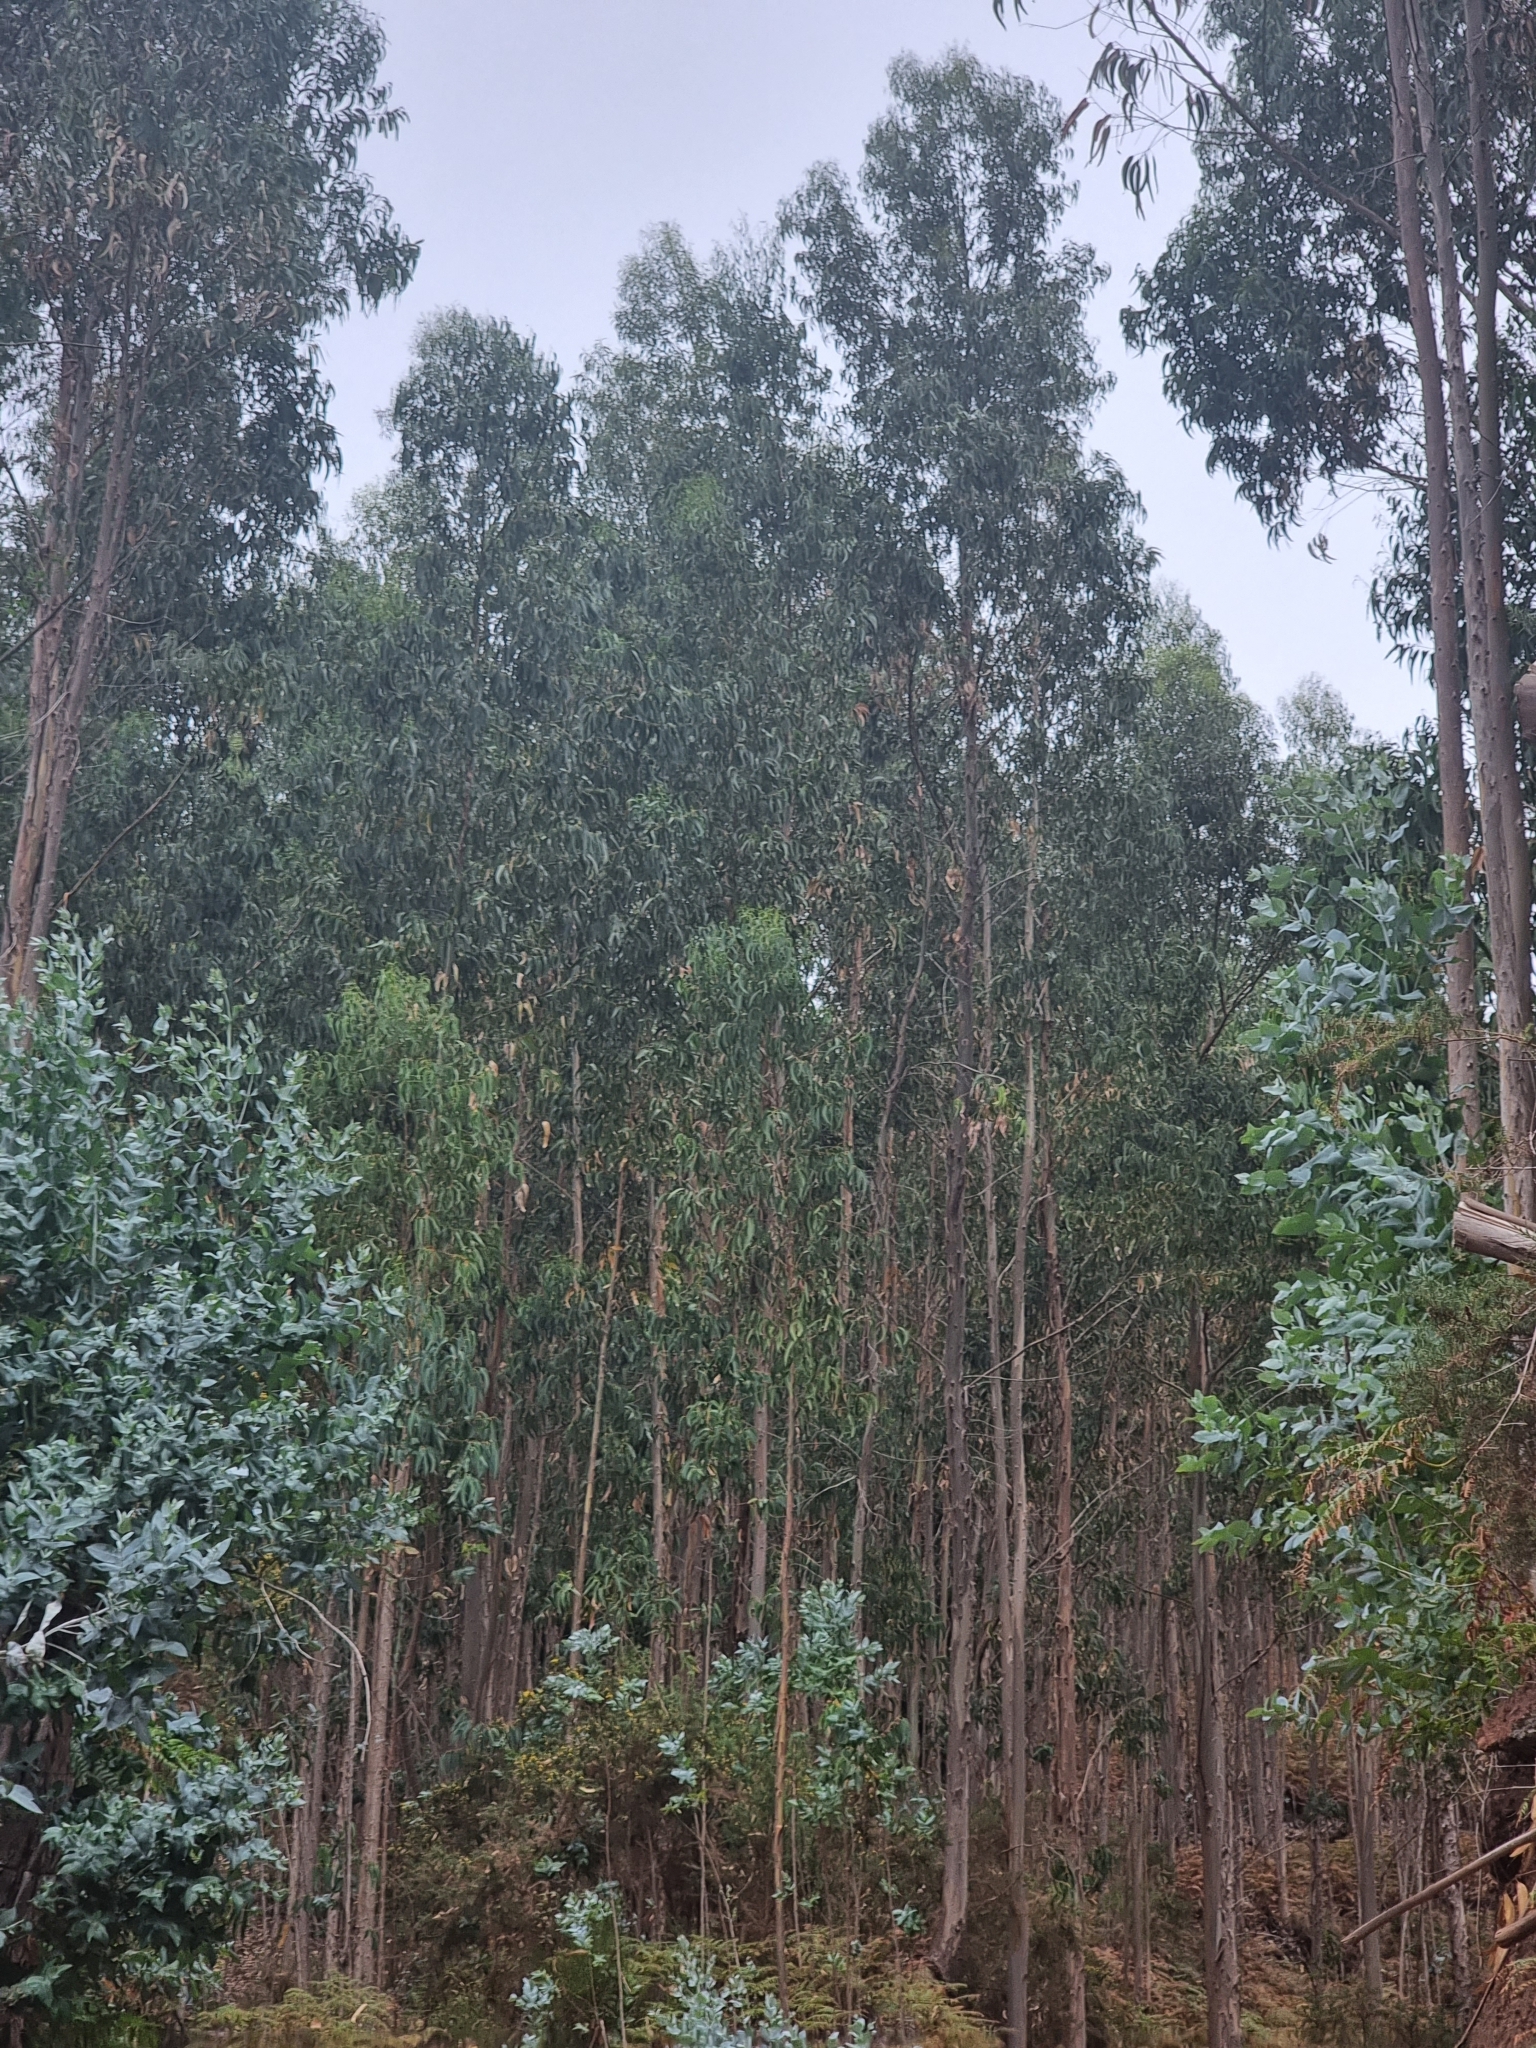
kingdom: Plantae
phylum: Tracheophyta
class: Magnoliopsida
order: Myrtales
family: Myrtaceae
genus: Eucalyptus
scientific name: Eucalyptus globulus
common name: Southern blue-gum
